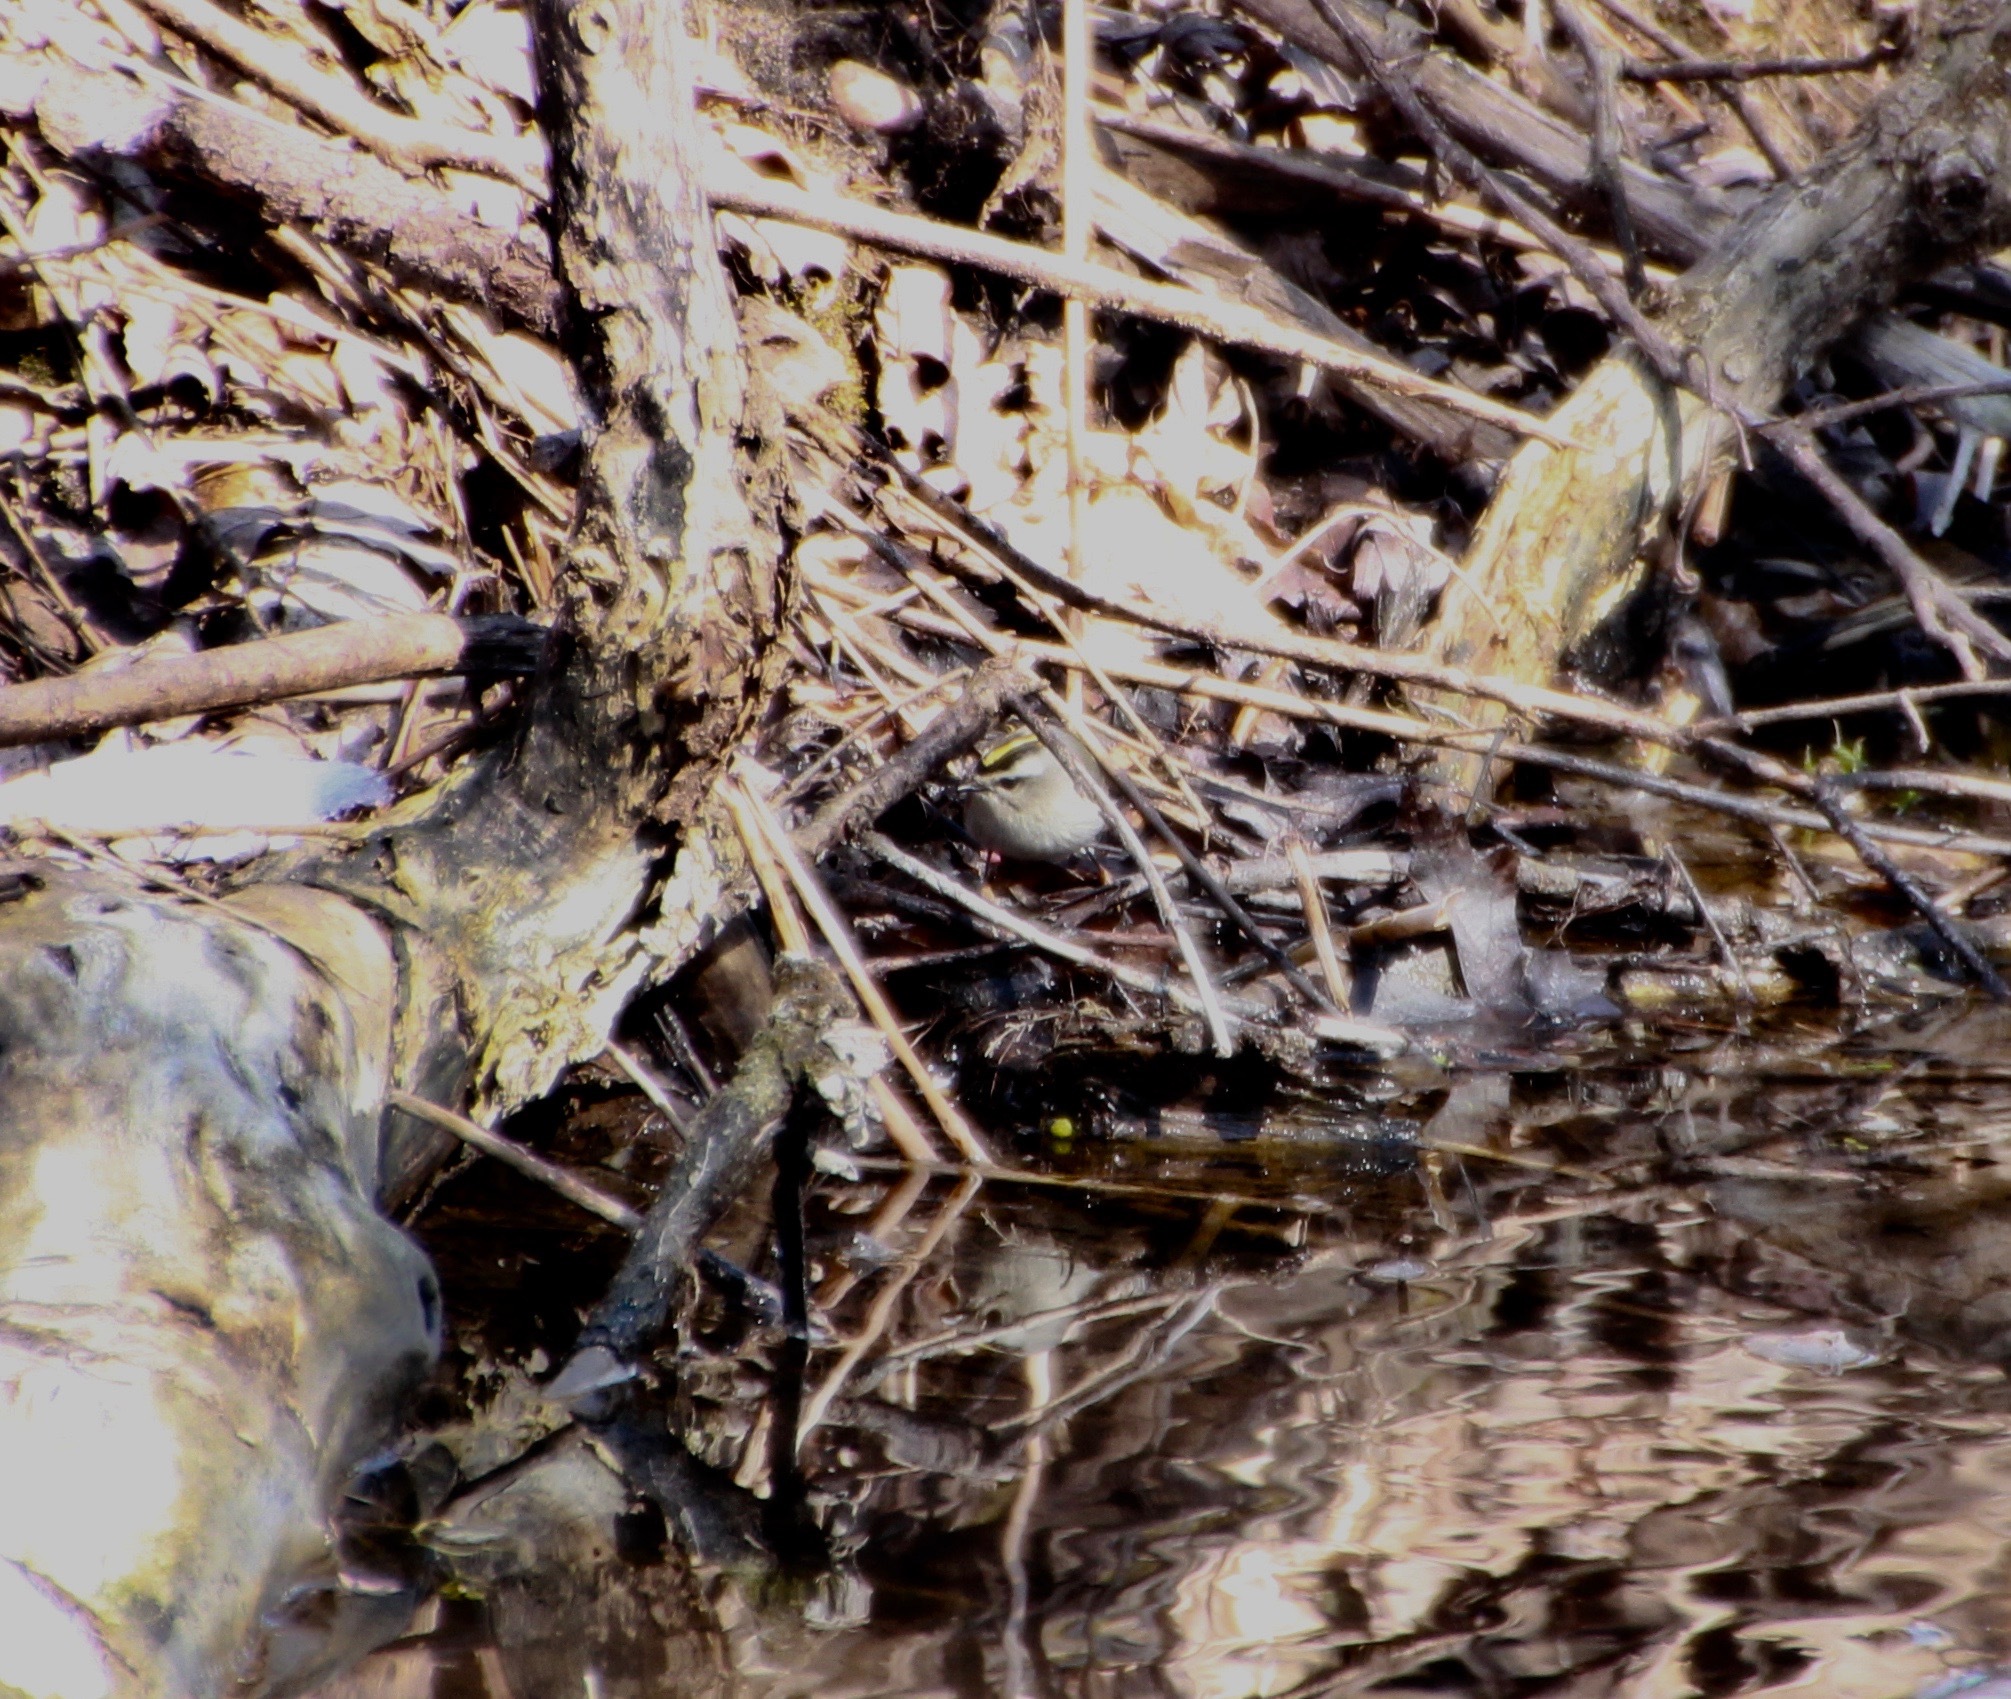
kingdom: Animalia
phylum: Chordata
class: Aves
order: Passeriformes
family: Regulidae
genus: Regulus
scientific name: Regulus satrapa
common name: Golden-crowned kinglet
